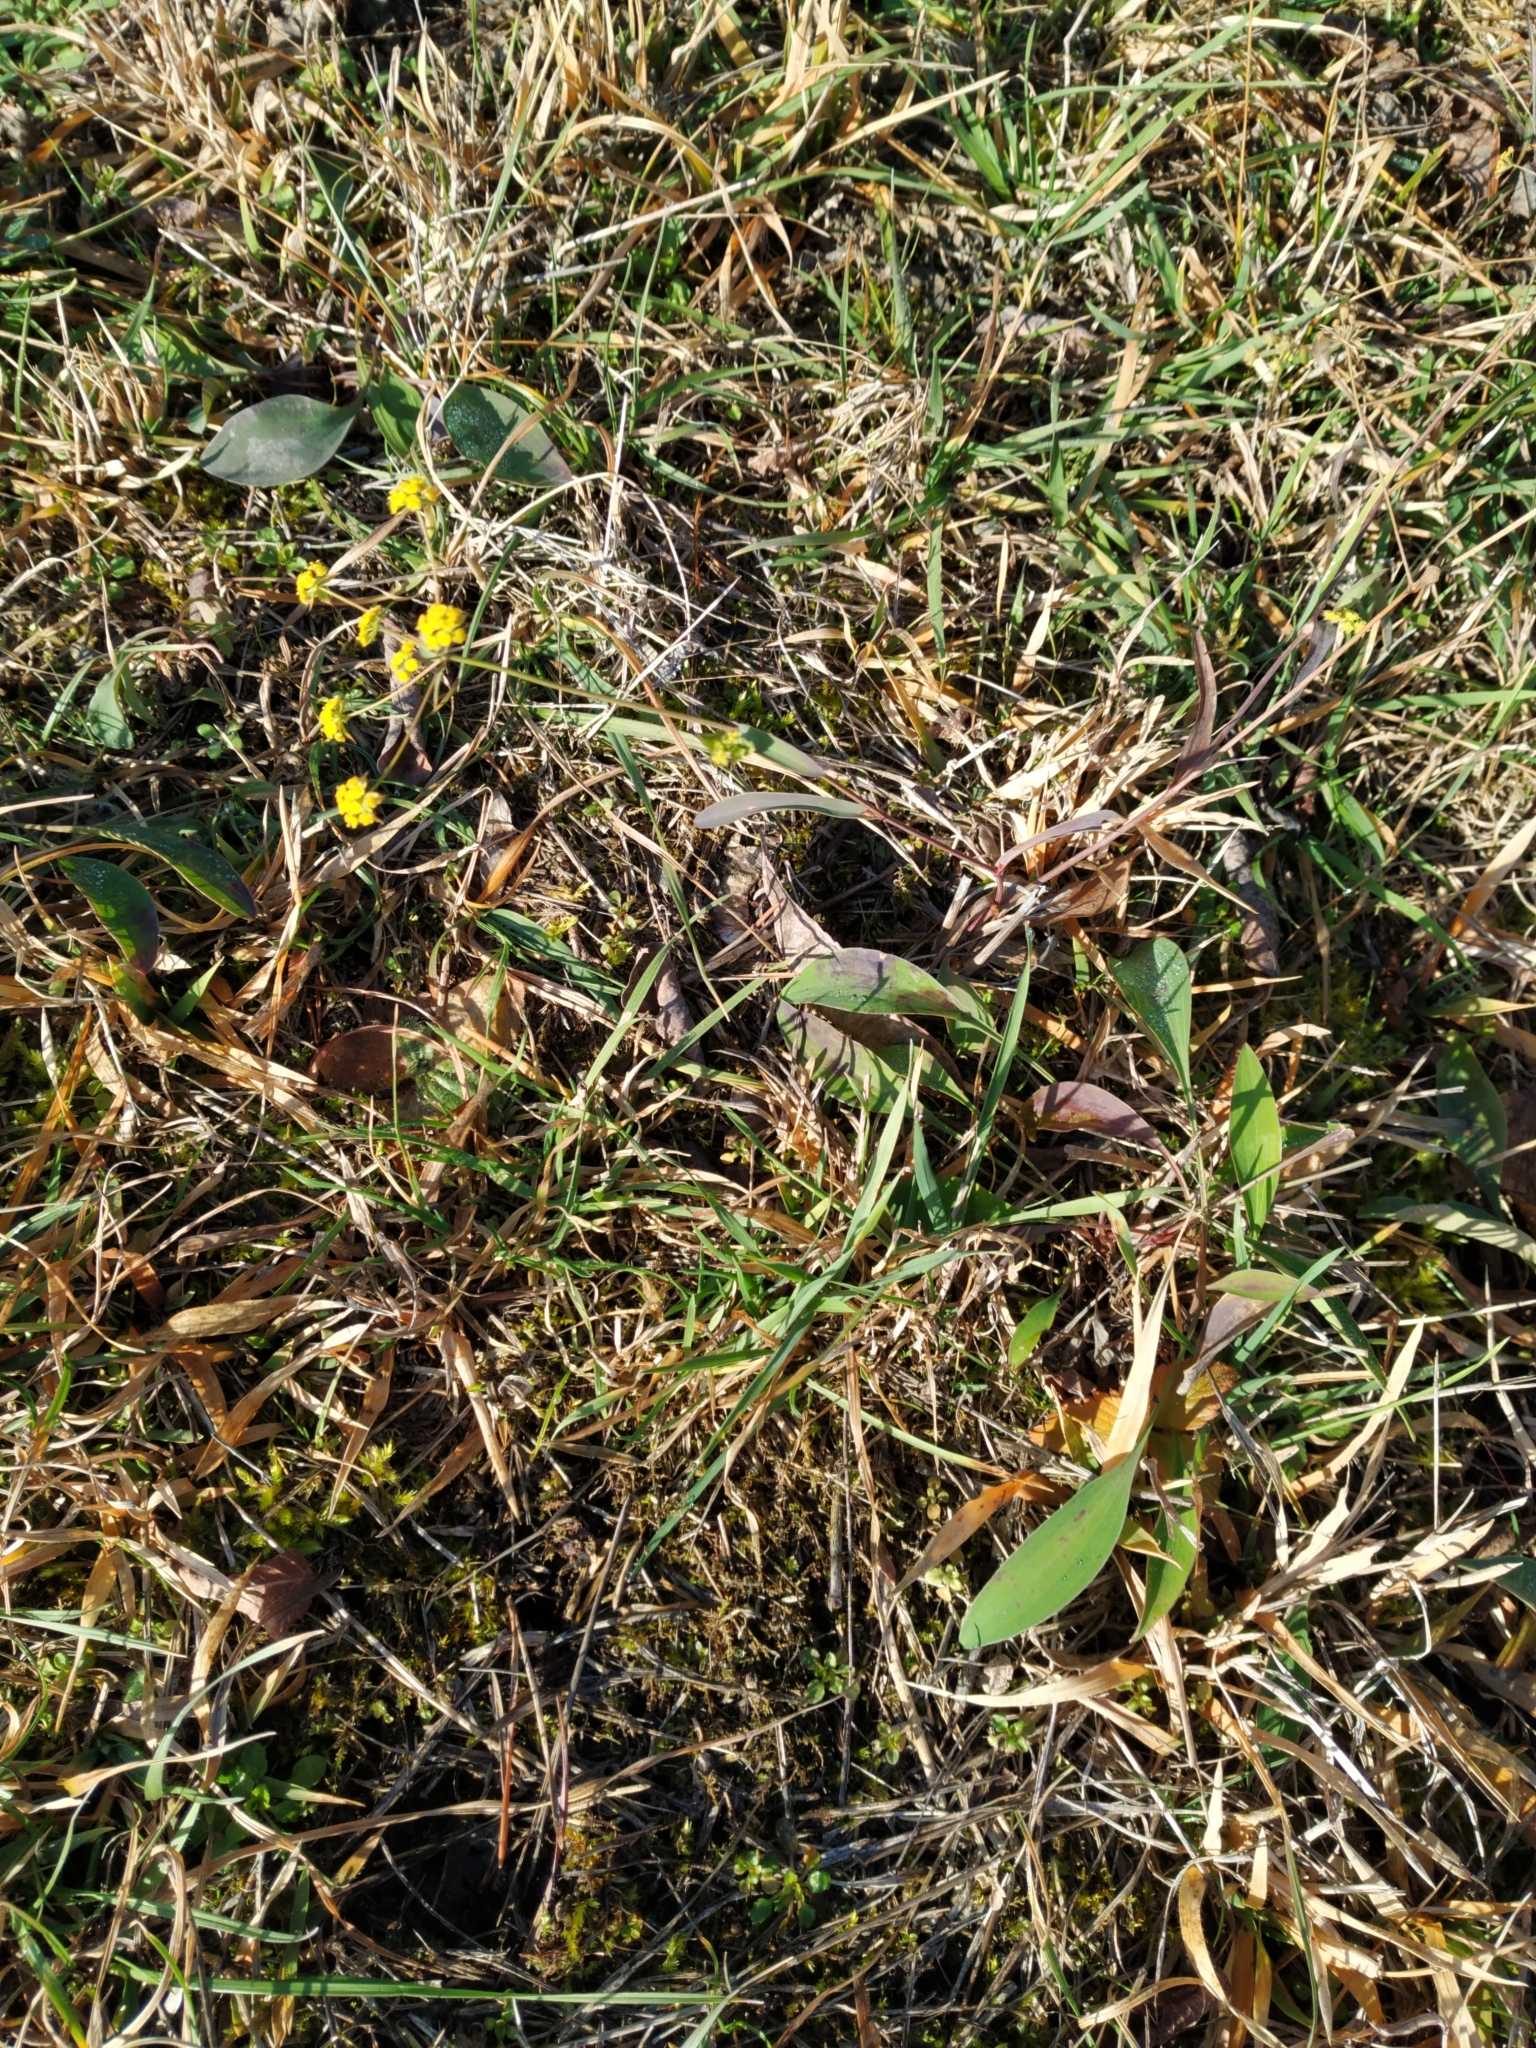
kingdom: Plantae
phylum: Tracheophyta
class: Magnoliopsida
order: Apiales
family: Apiaceae
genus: Bupleurum
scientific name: Bupleurum falcatum
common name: Sickle-leaved hare's-ear
